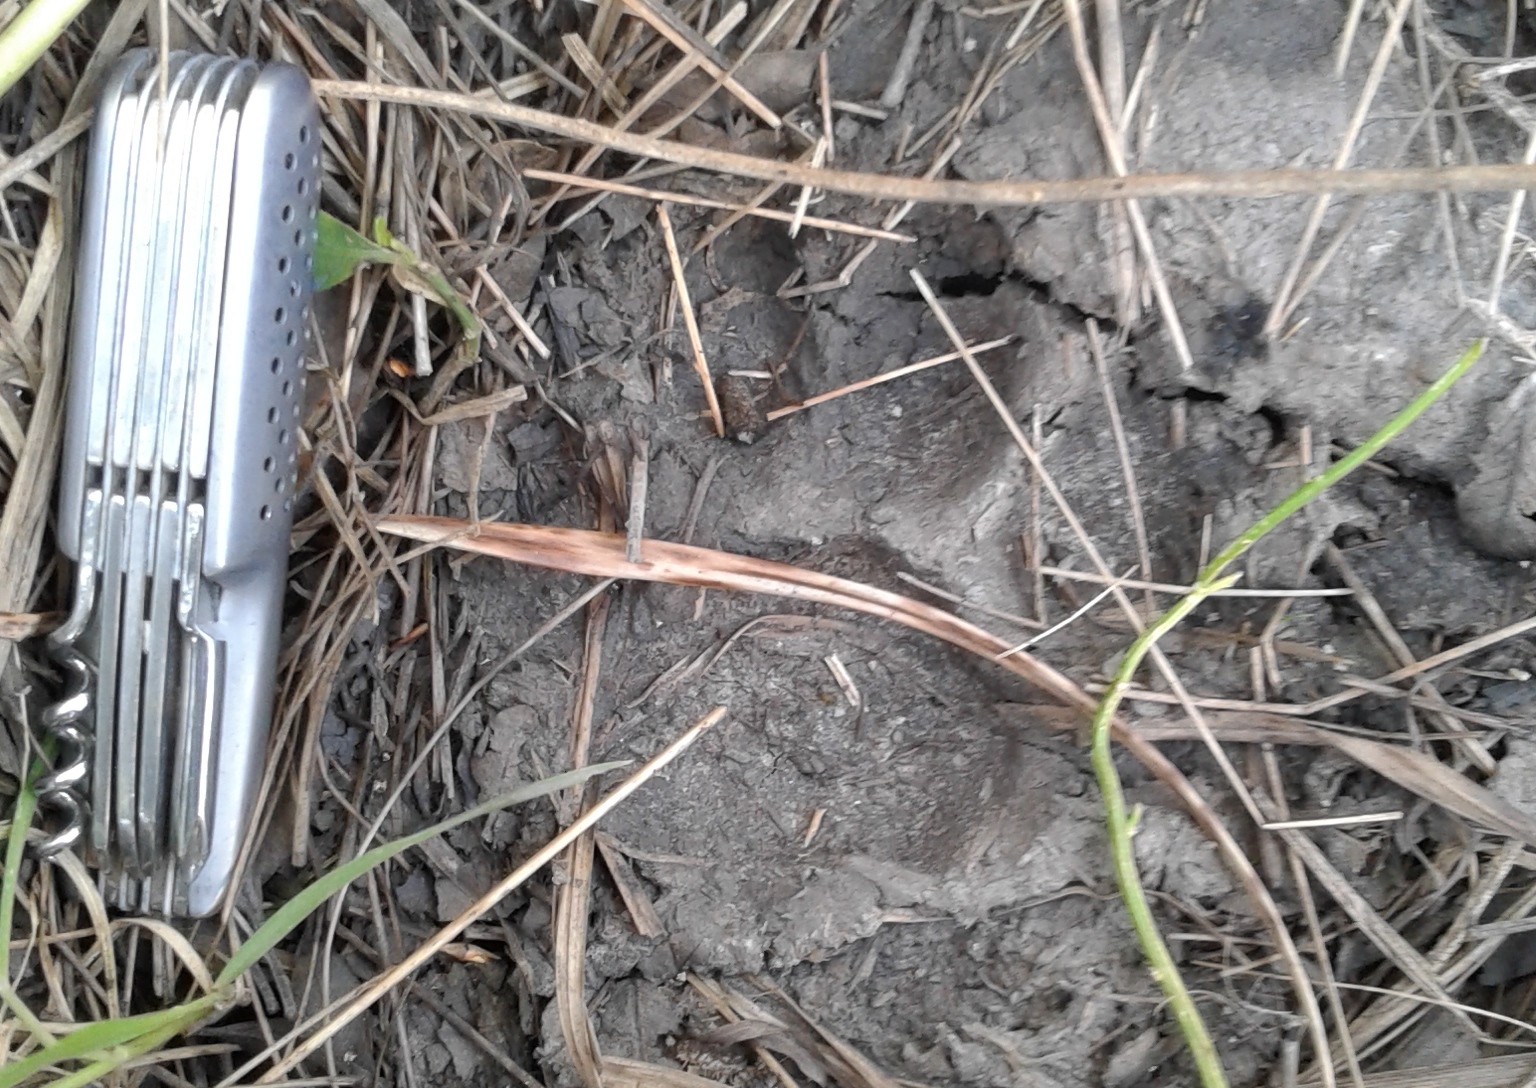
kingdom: Animalia
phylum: Chordata
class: Mammalia
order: Carnivora
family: Felidae
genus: Puma
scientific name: Puma concolor
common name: Puma
